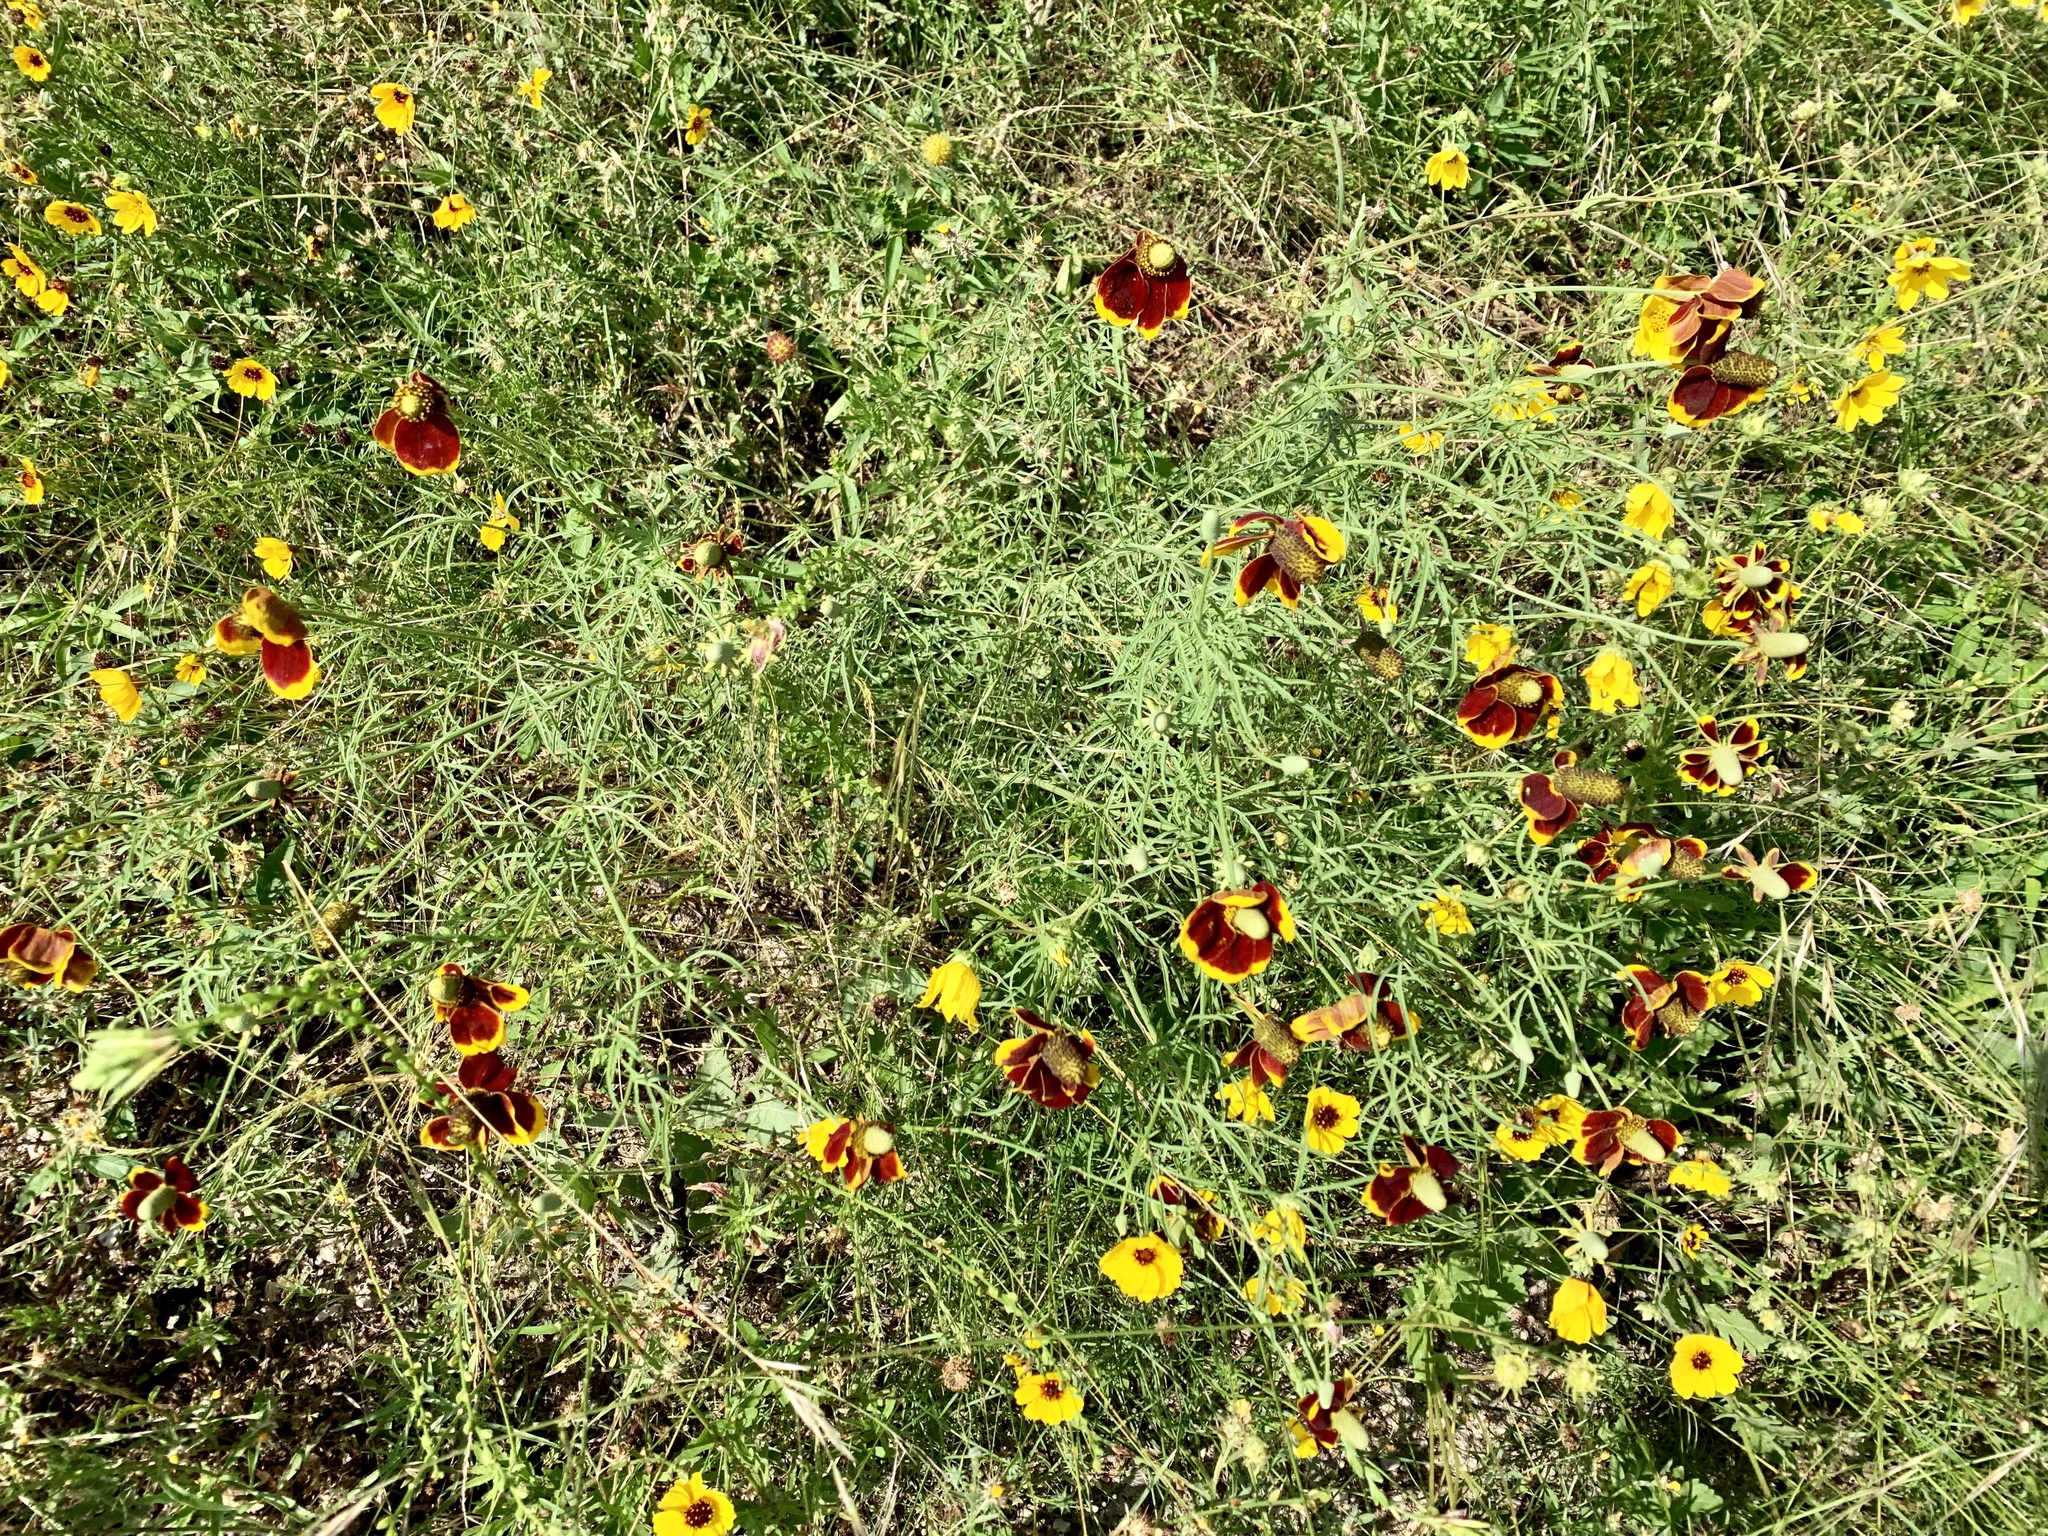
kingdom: Plantae
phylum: Tracheophyta
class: Magnoliopsida
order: Asterales
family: Asteraceae
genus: Ratibida
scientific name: Ratibida columnifera
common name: Prairie coneflower
